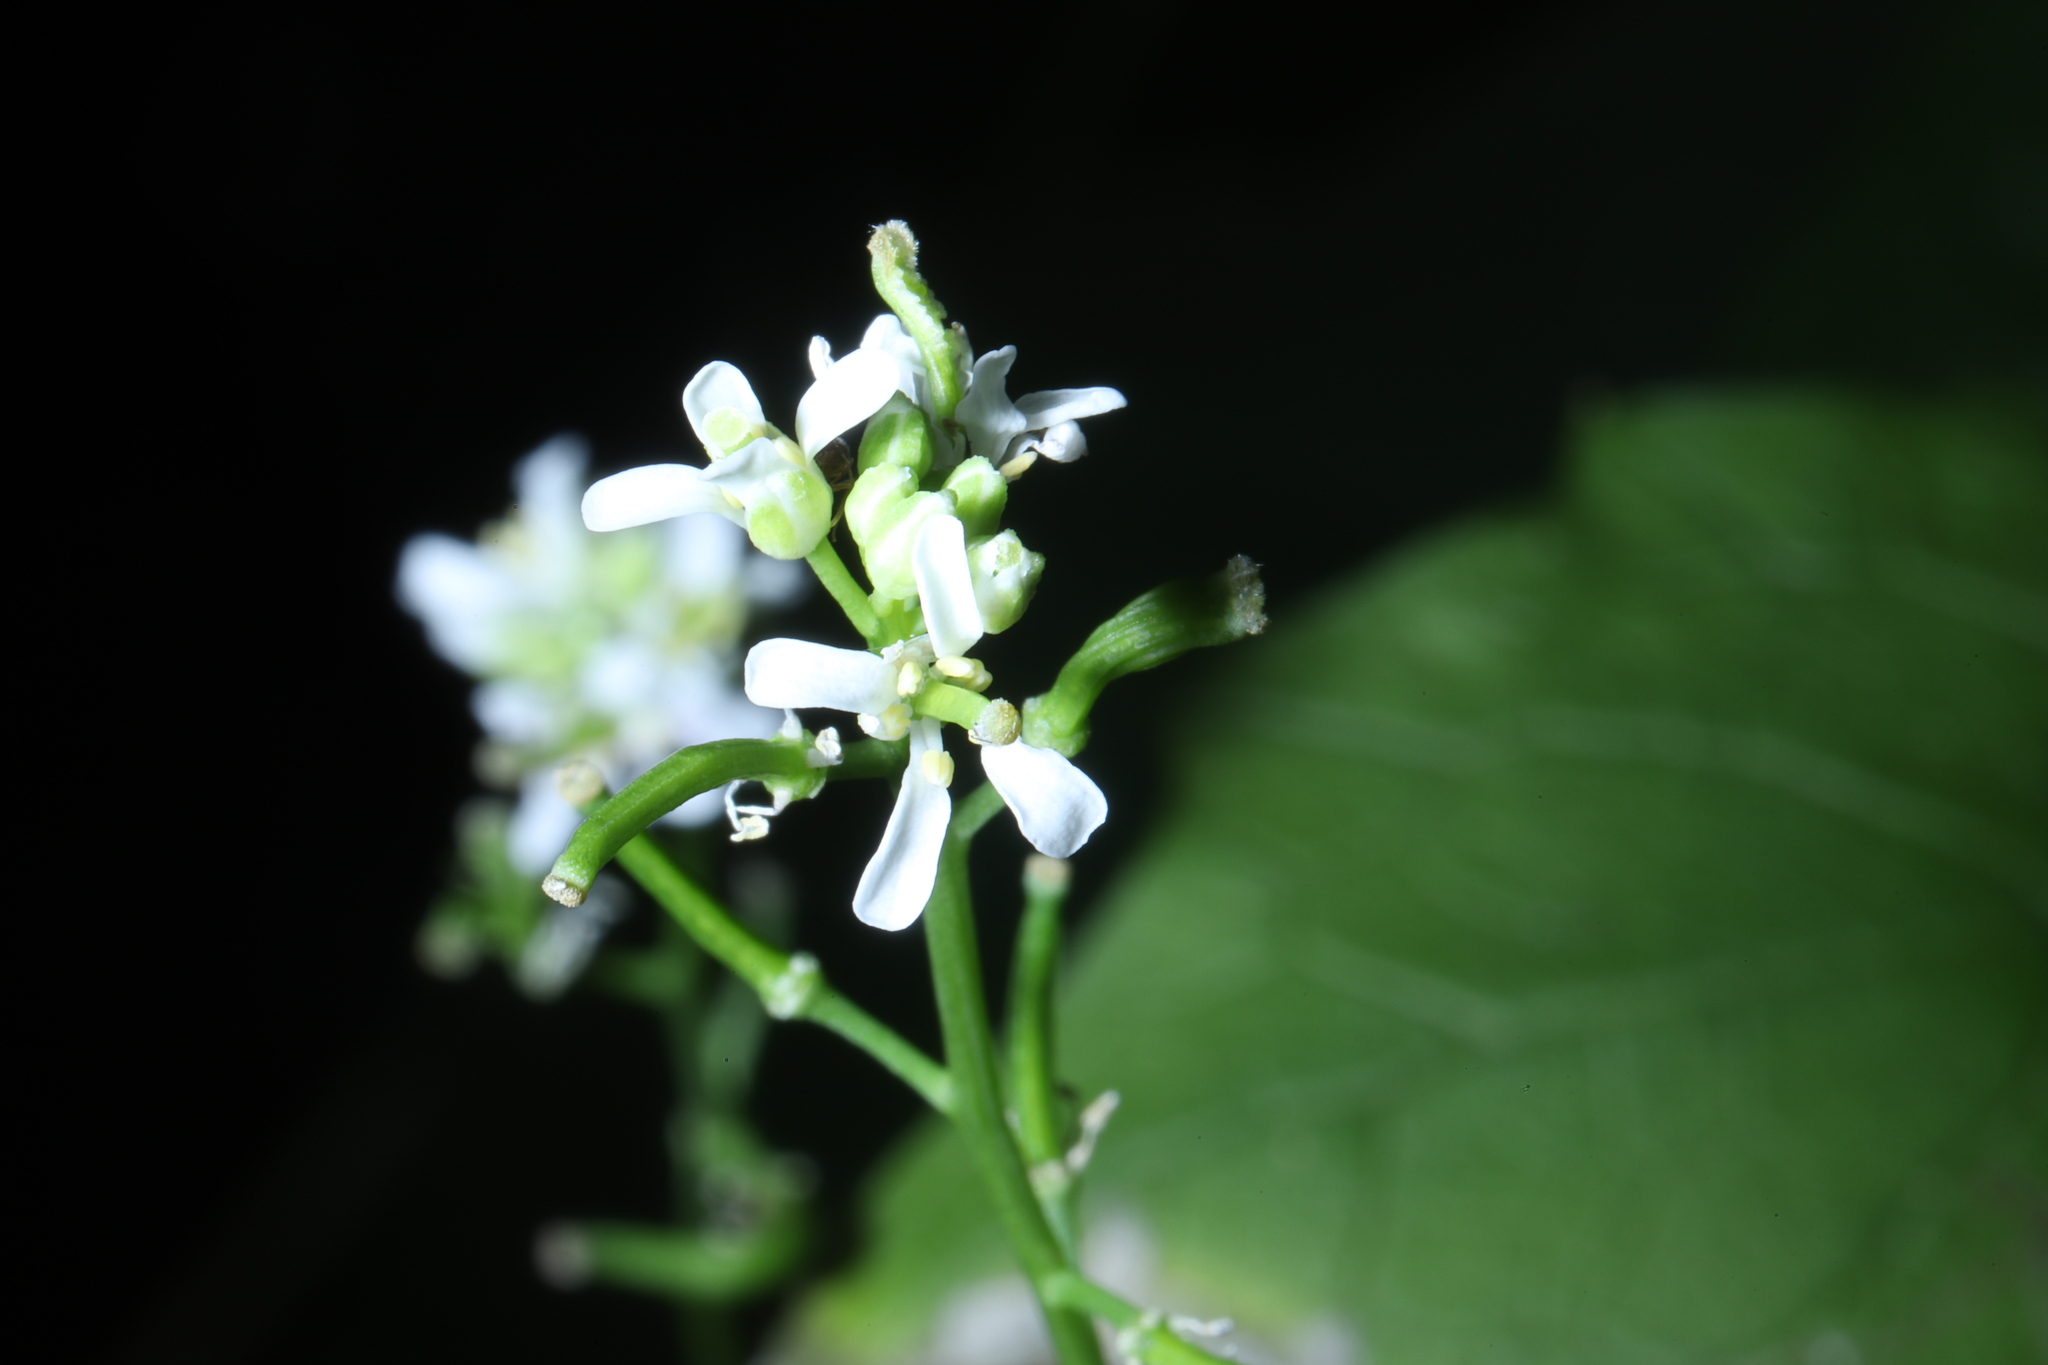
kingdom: Plantae
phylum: Tracheophyta
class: Magnoliopsida
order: Brassicales
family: Brassicaceae
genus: Alliaria
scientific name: Alliaria petiolata
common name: Garlic mustard
